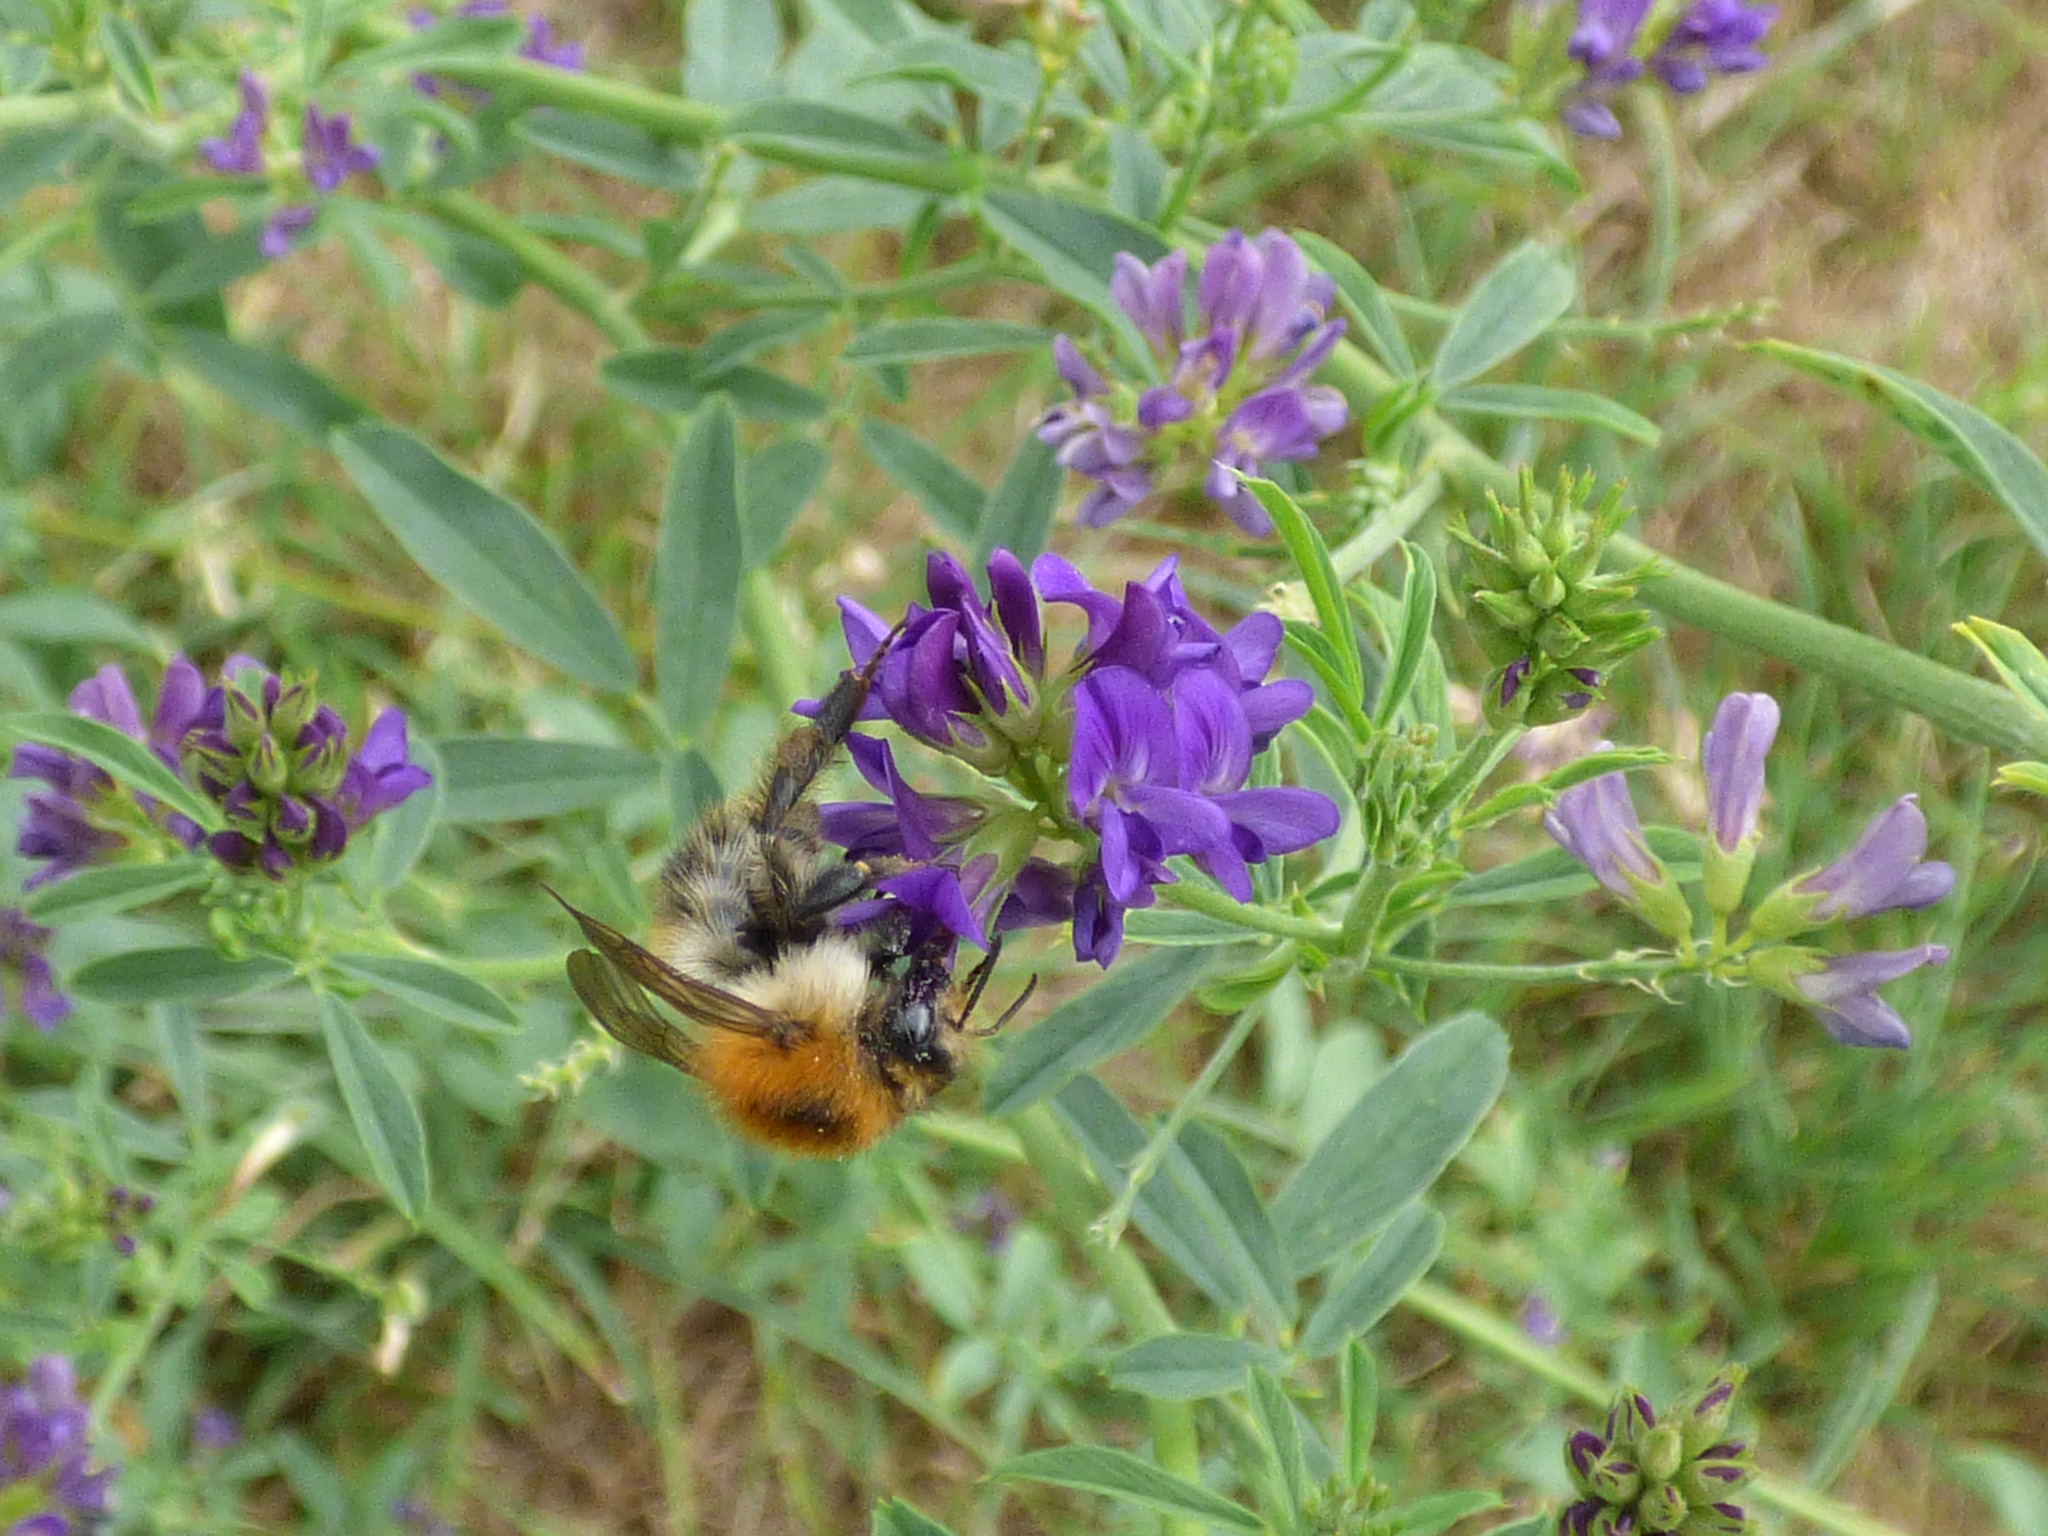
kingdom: Animalia
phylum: Arthropoda
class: Insecta
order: Hymenoptera
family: Apidae
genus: Bombus
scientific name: Bombus pascuorum
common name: Common carder bee
